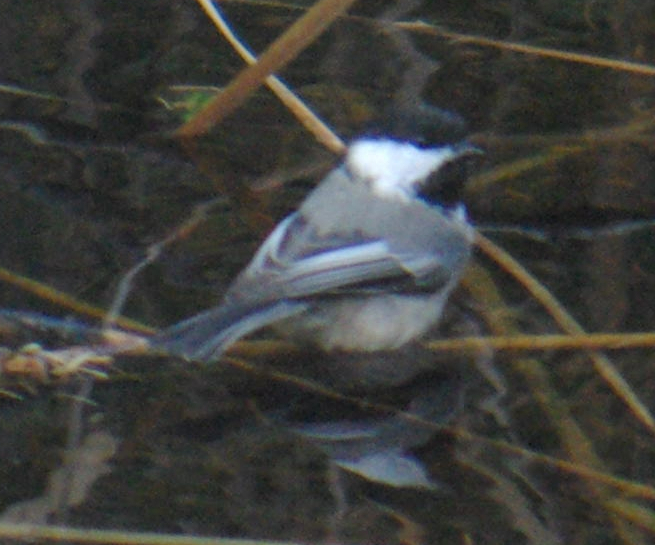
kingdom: Animalia
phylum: Chordata
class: Aves
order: Passeriformes
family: Paridae
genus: Poecile
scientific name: Poecile atricapillus
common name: Black-capped chickadee
